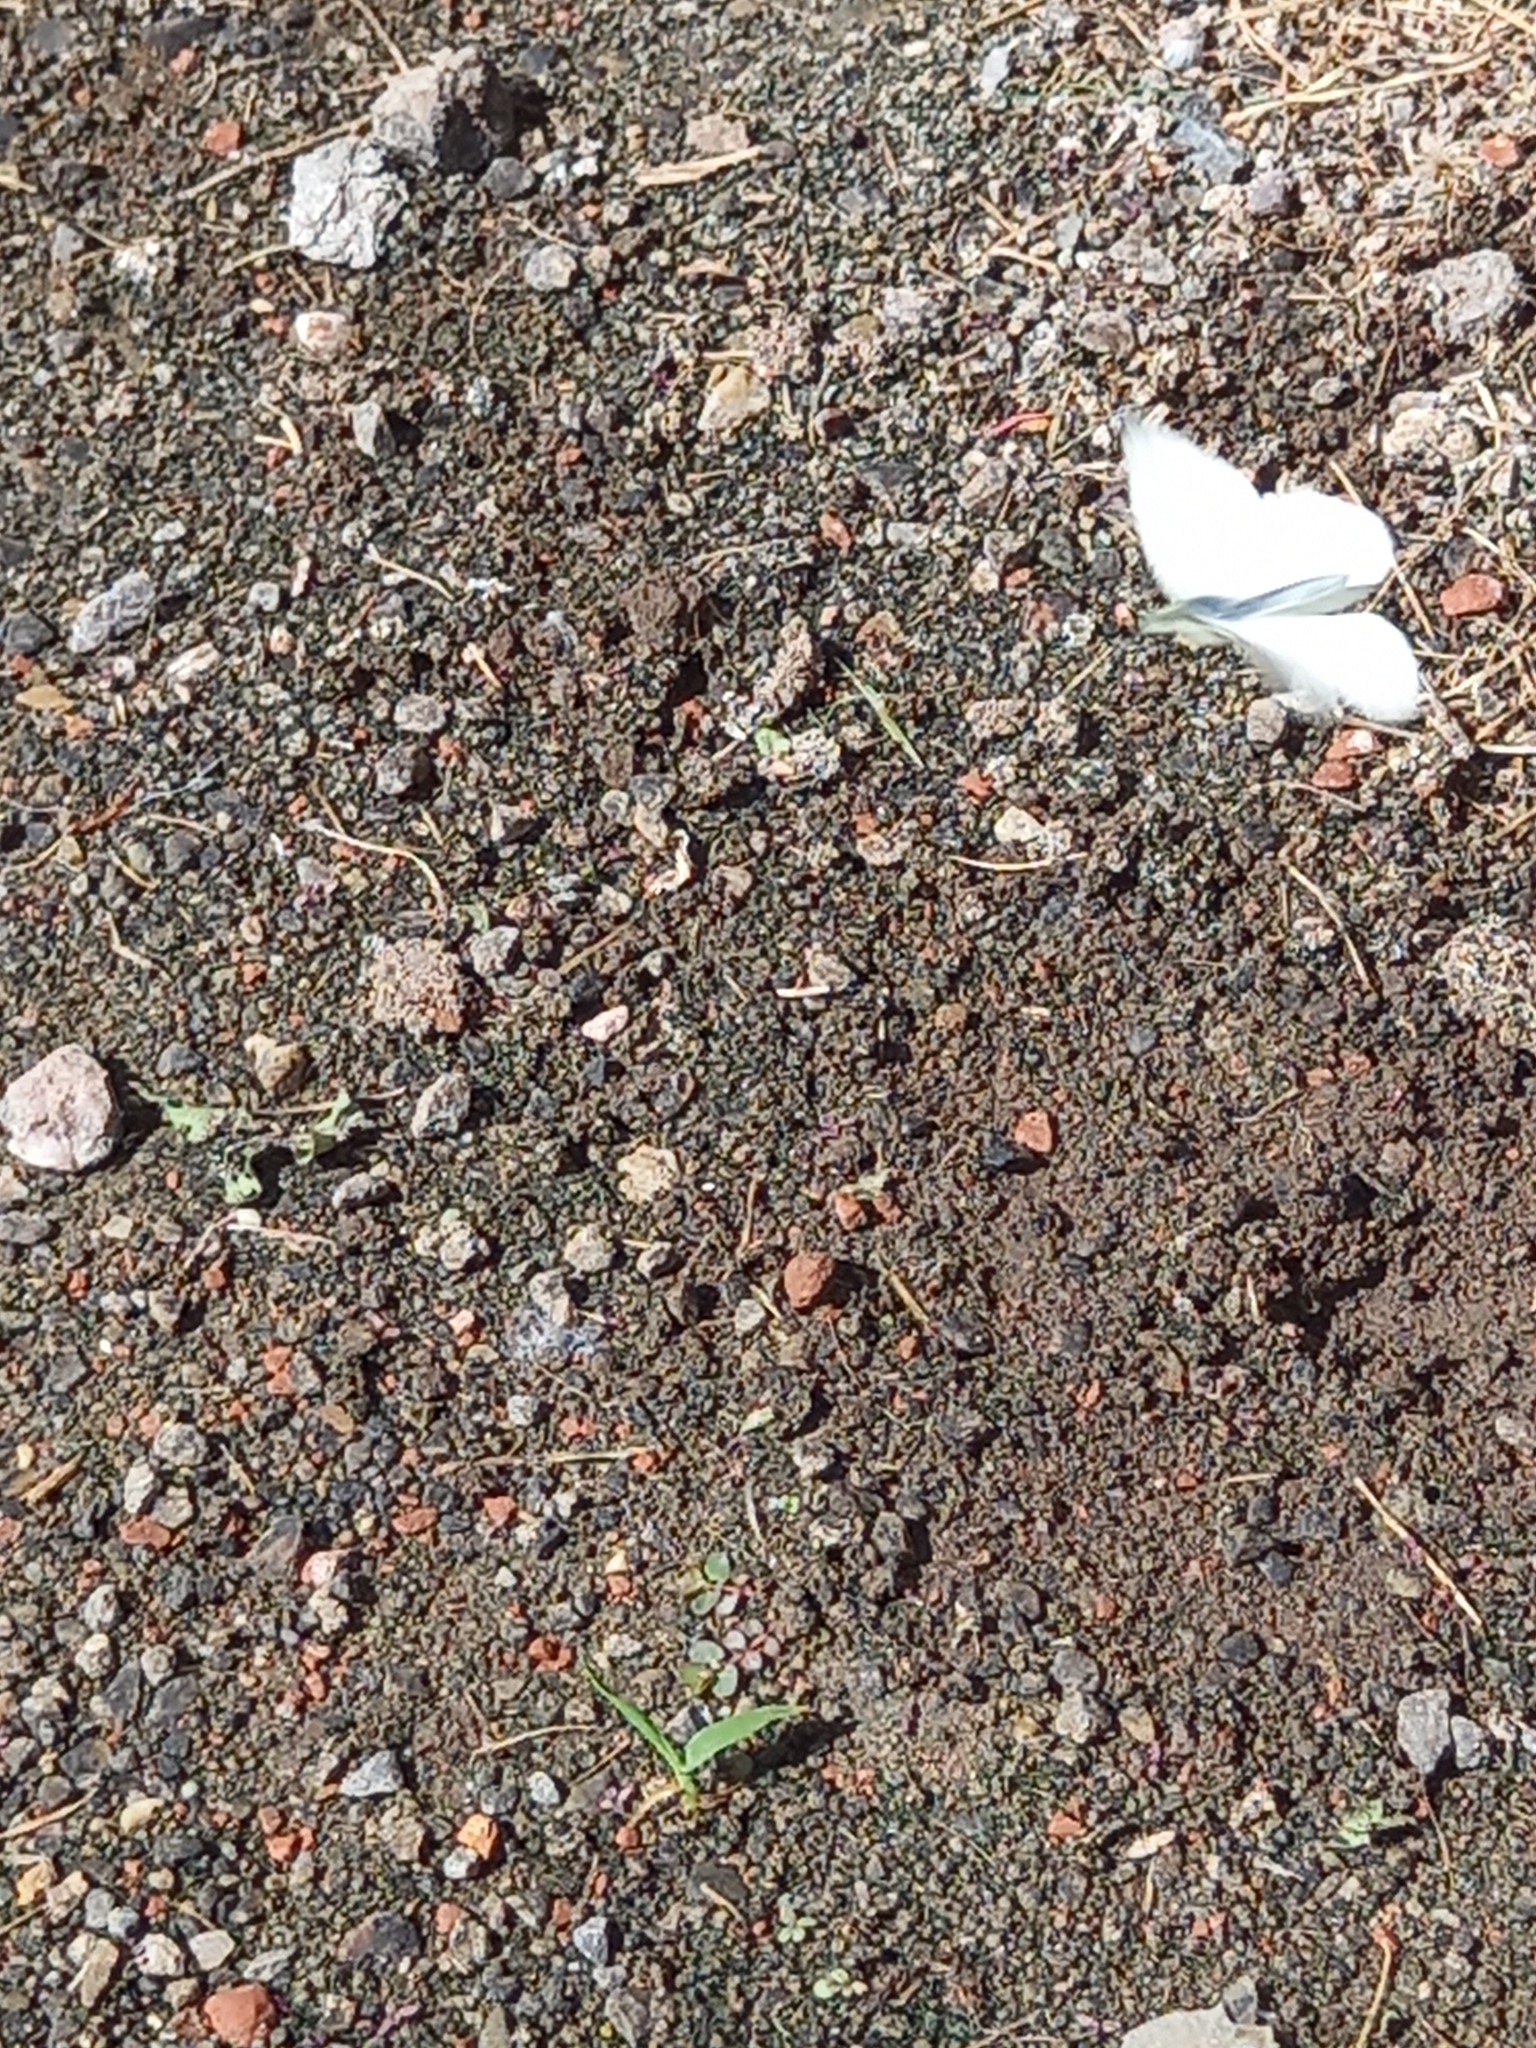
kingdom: Animalia
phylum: Arthropoda
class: Insecta
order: Lepidoptera
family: Pieridae
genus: Pieris
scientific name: Pieris rapae
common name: Small white
